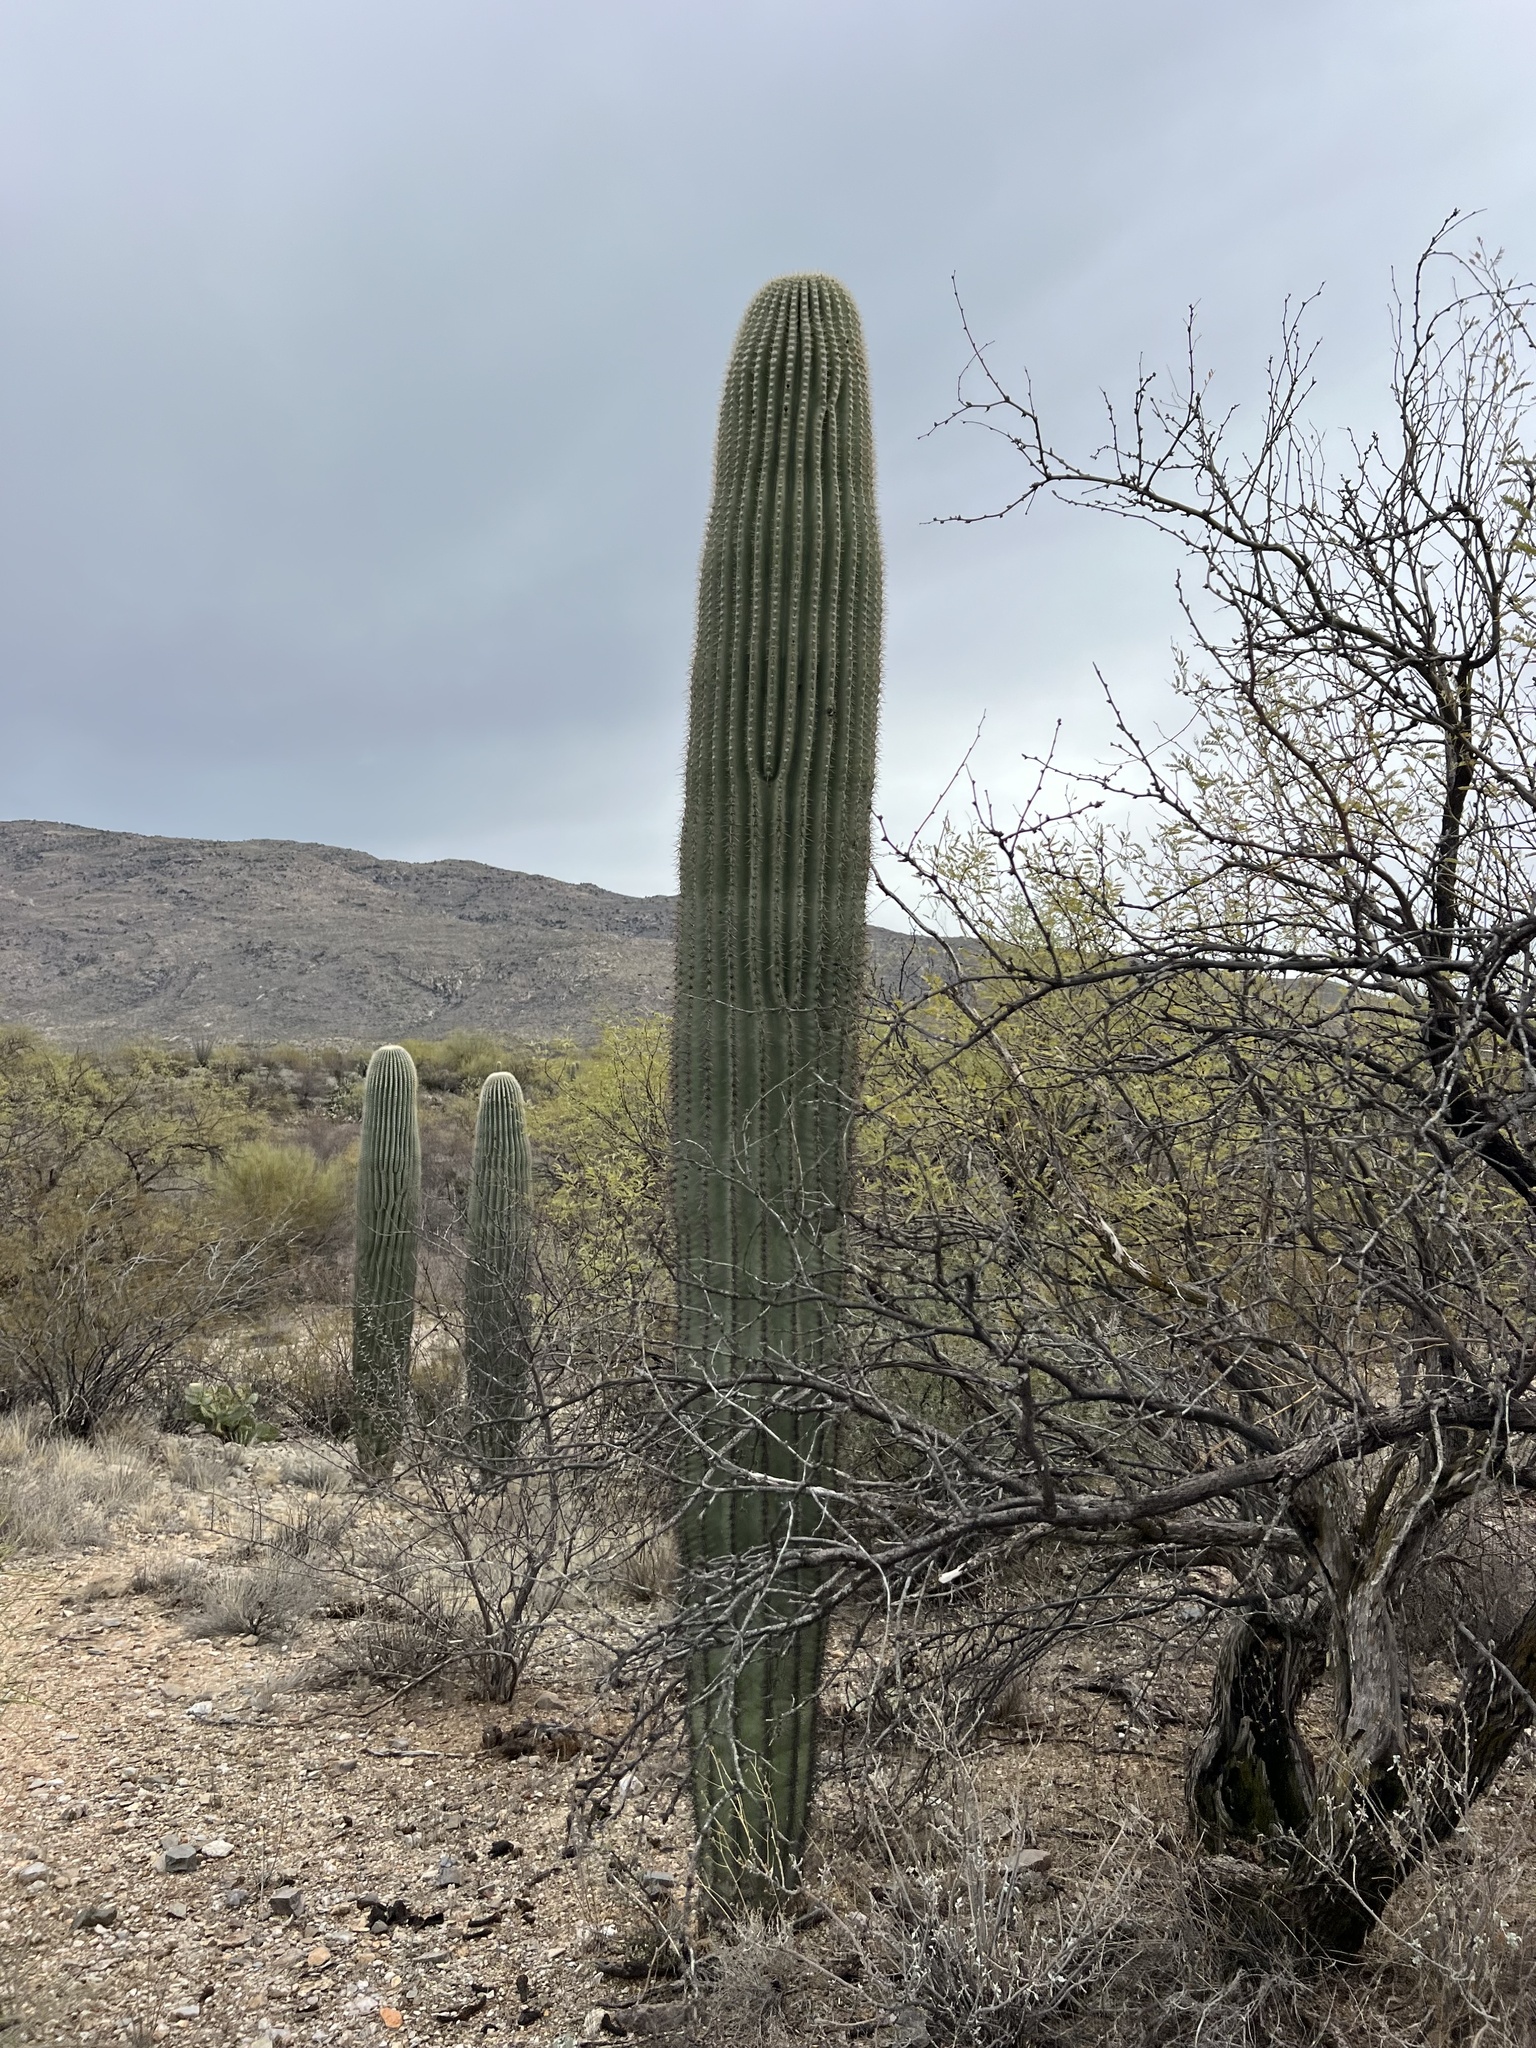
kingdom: Plantae
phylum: Tracheophyta
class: Magnoliopsida
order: Caryophyllales
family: Cactaceae
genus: Carnegiea
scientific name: Carnegiea gigantea
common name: Saguaro
